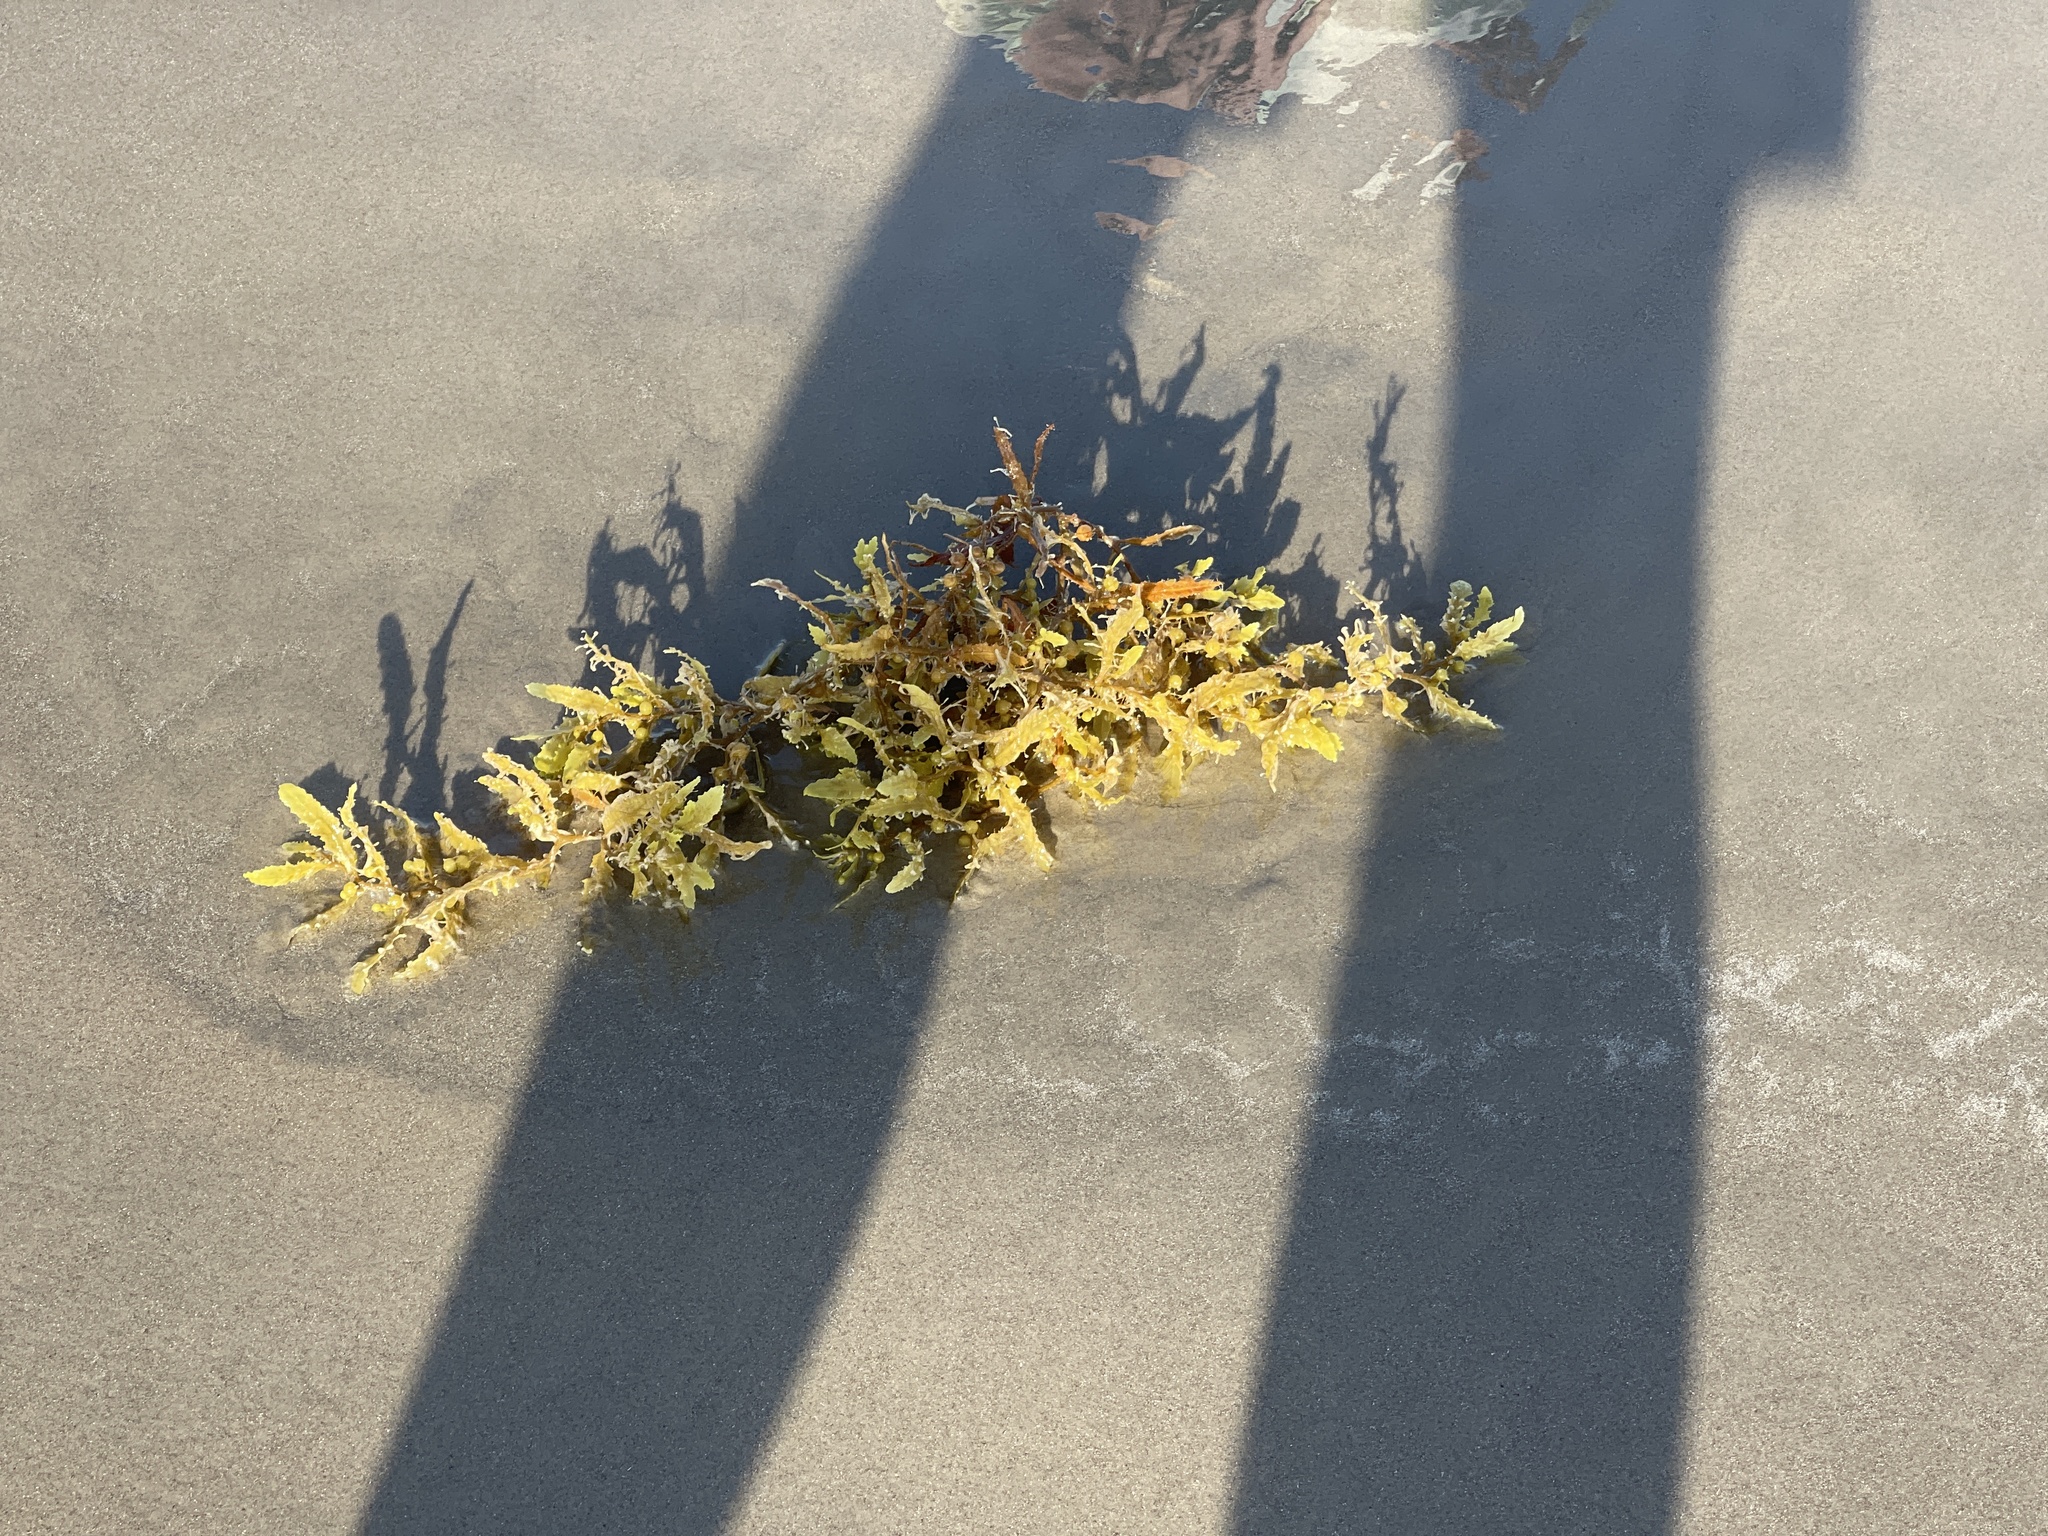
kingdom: Chromista
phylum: Ochrophyta
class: Phaeophyceae
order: Fucales
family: Sargassaceae
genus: Sargassum
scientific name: Sargassum fluitans
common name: Sargassum seaweed
